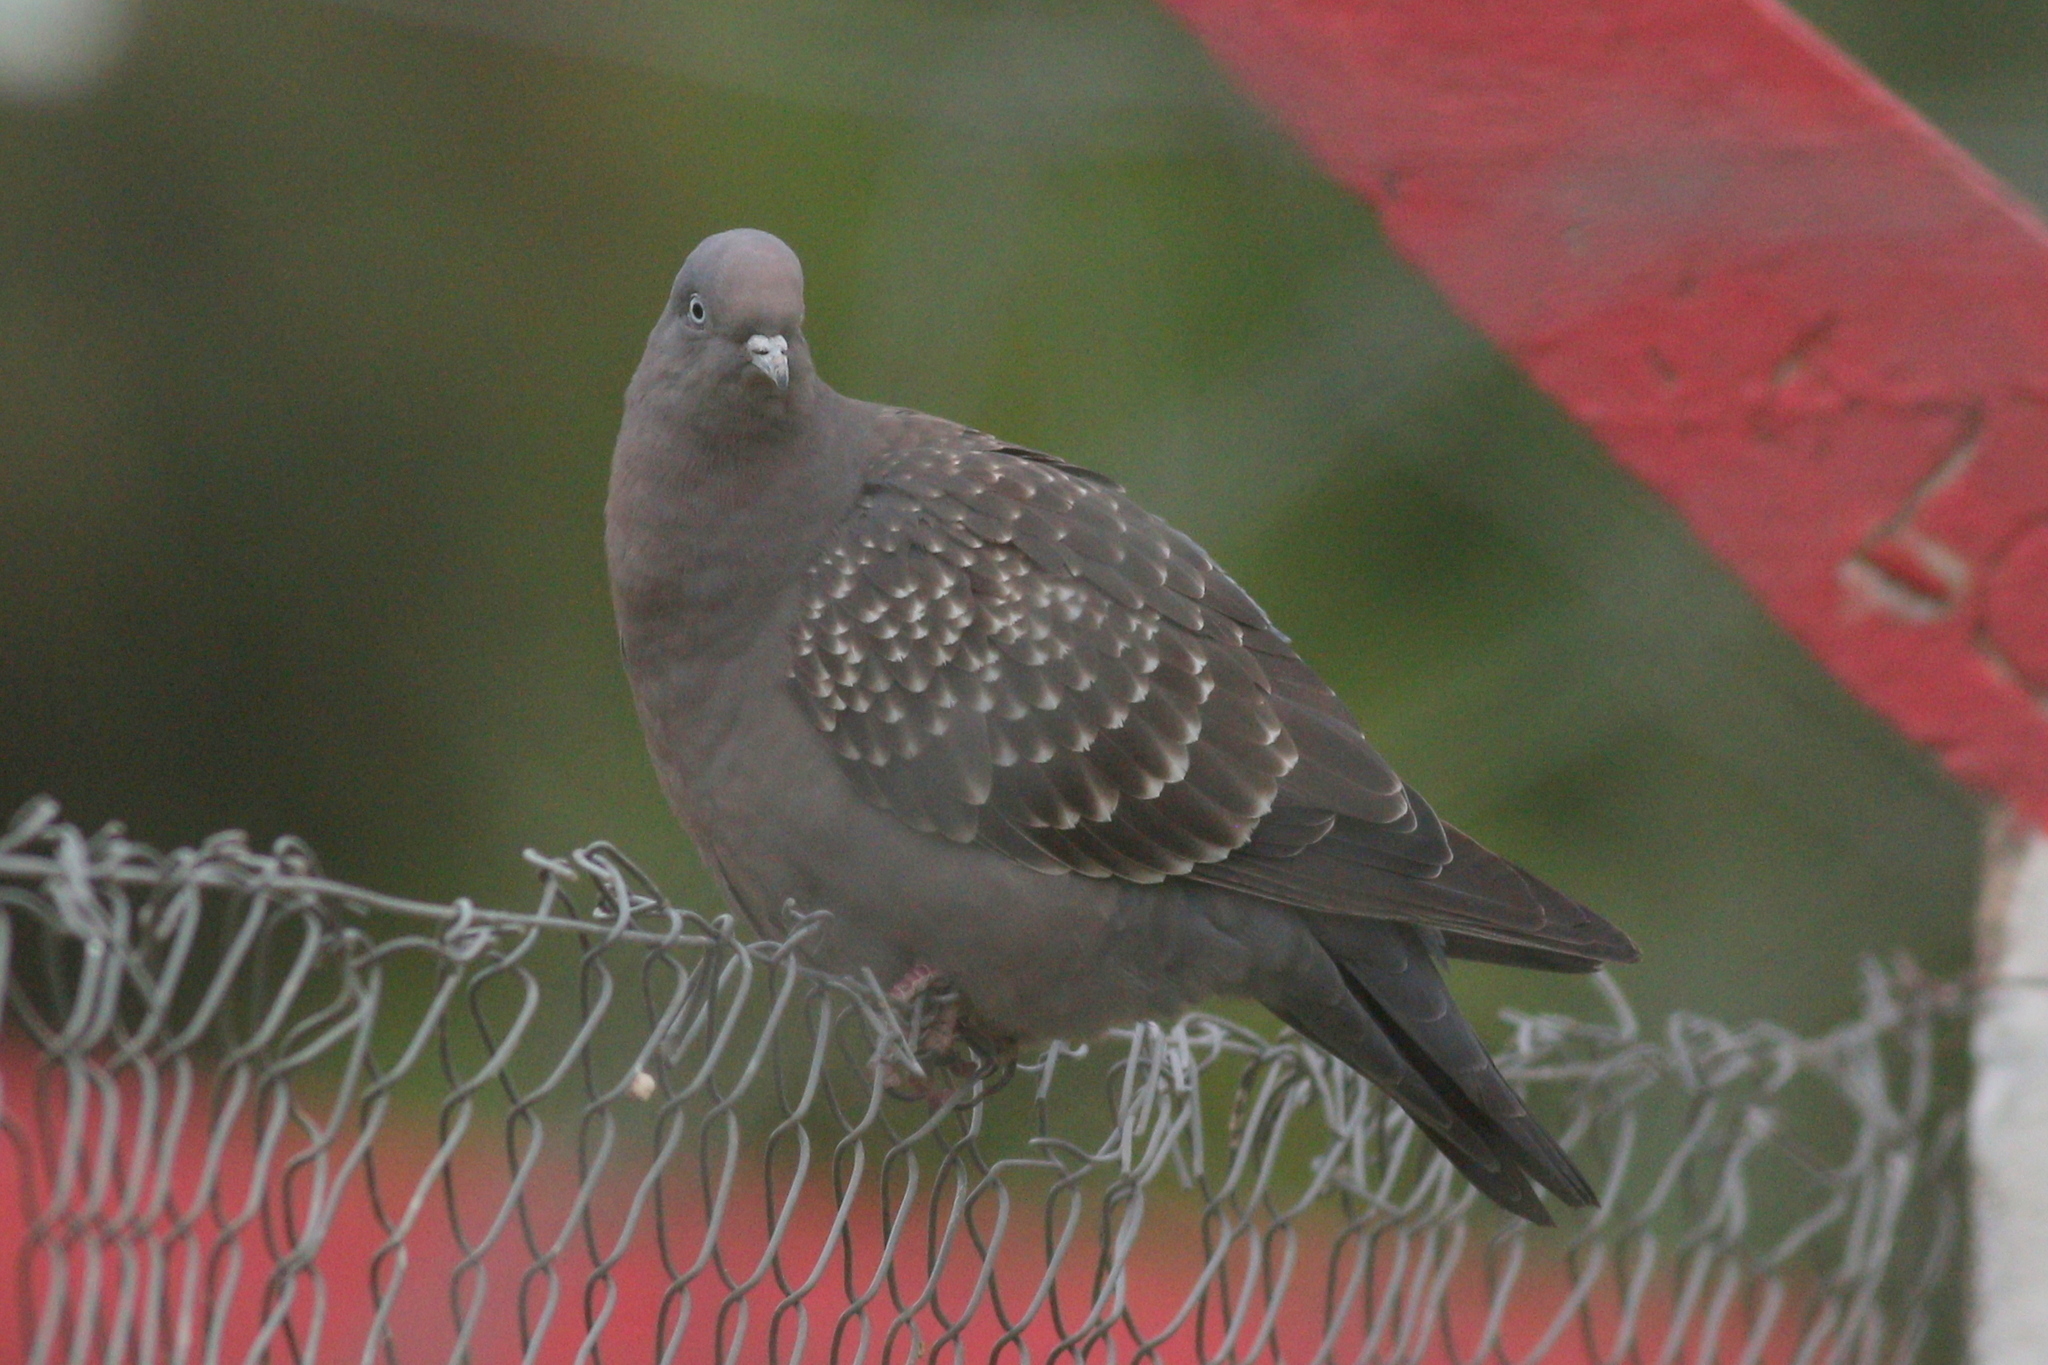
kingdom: Animalia
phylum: Chordata
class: Aves
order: Columbiformes
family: Columbidae
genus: Patagioenas
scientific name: Patagioenas maculosa
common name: Spot-winged pigeon
